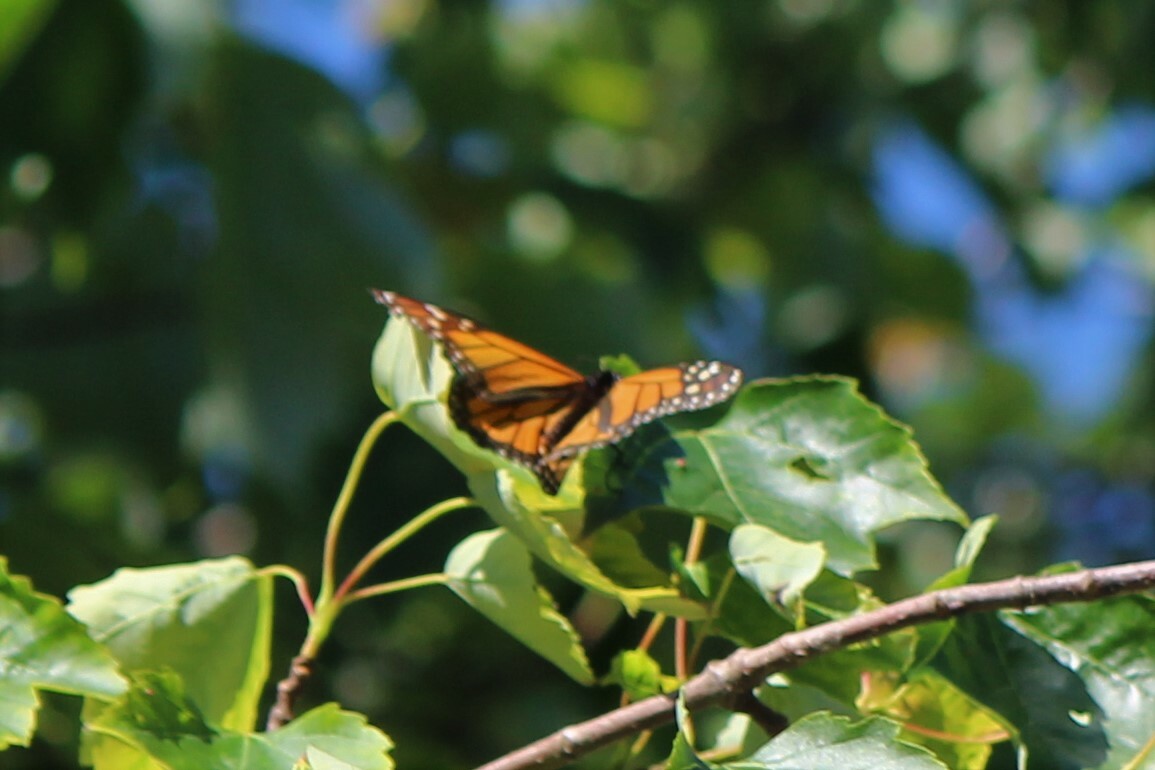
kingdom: Animalia
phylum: Arthropoda
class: Insecta
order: Lepidoptera
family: Nymphalidae
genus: Danaus
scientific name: Danaus plexippus
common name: Monarch
